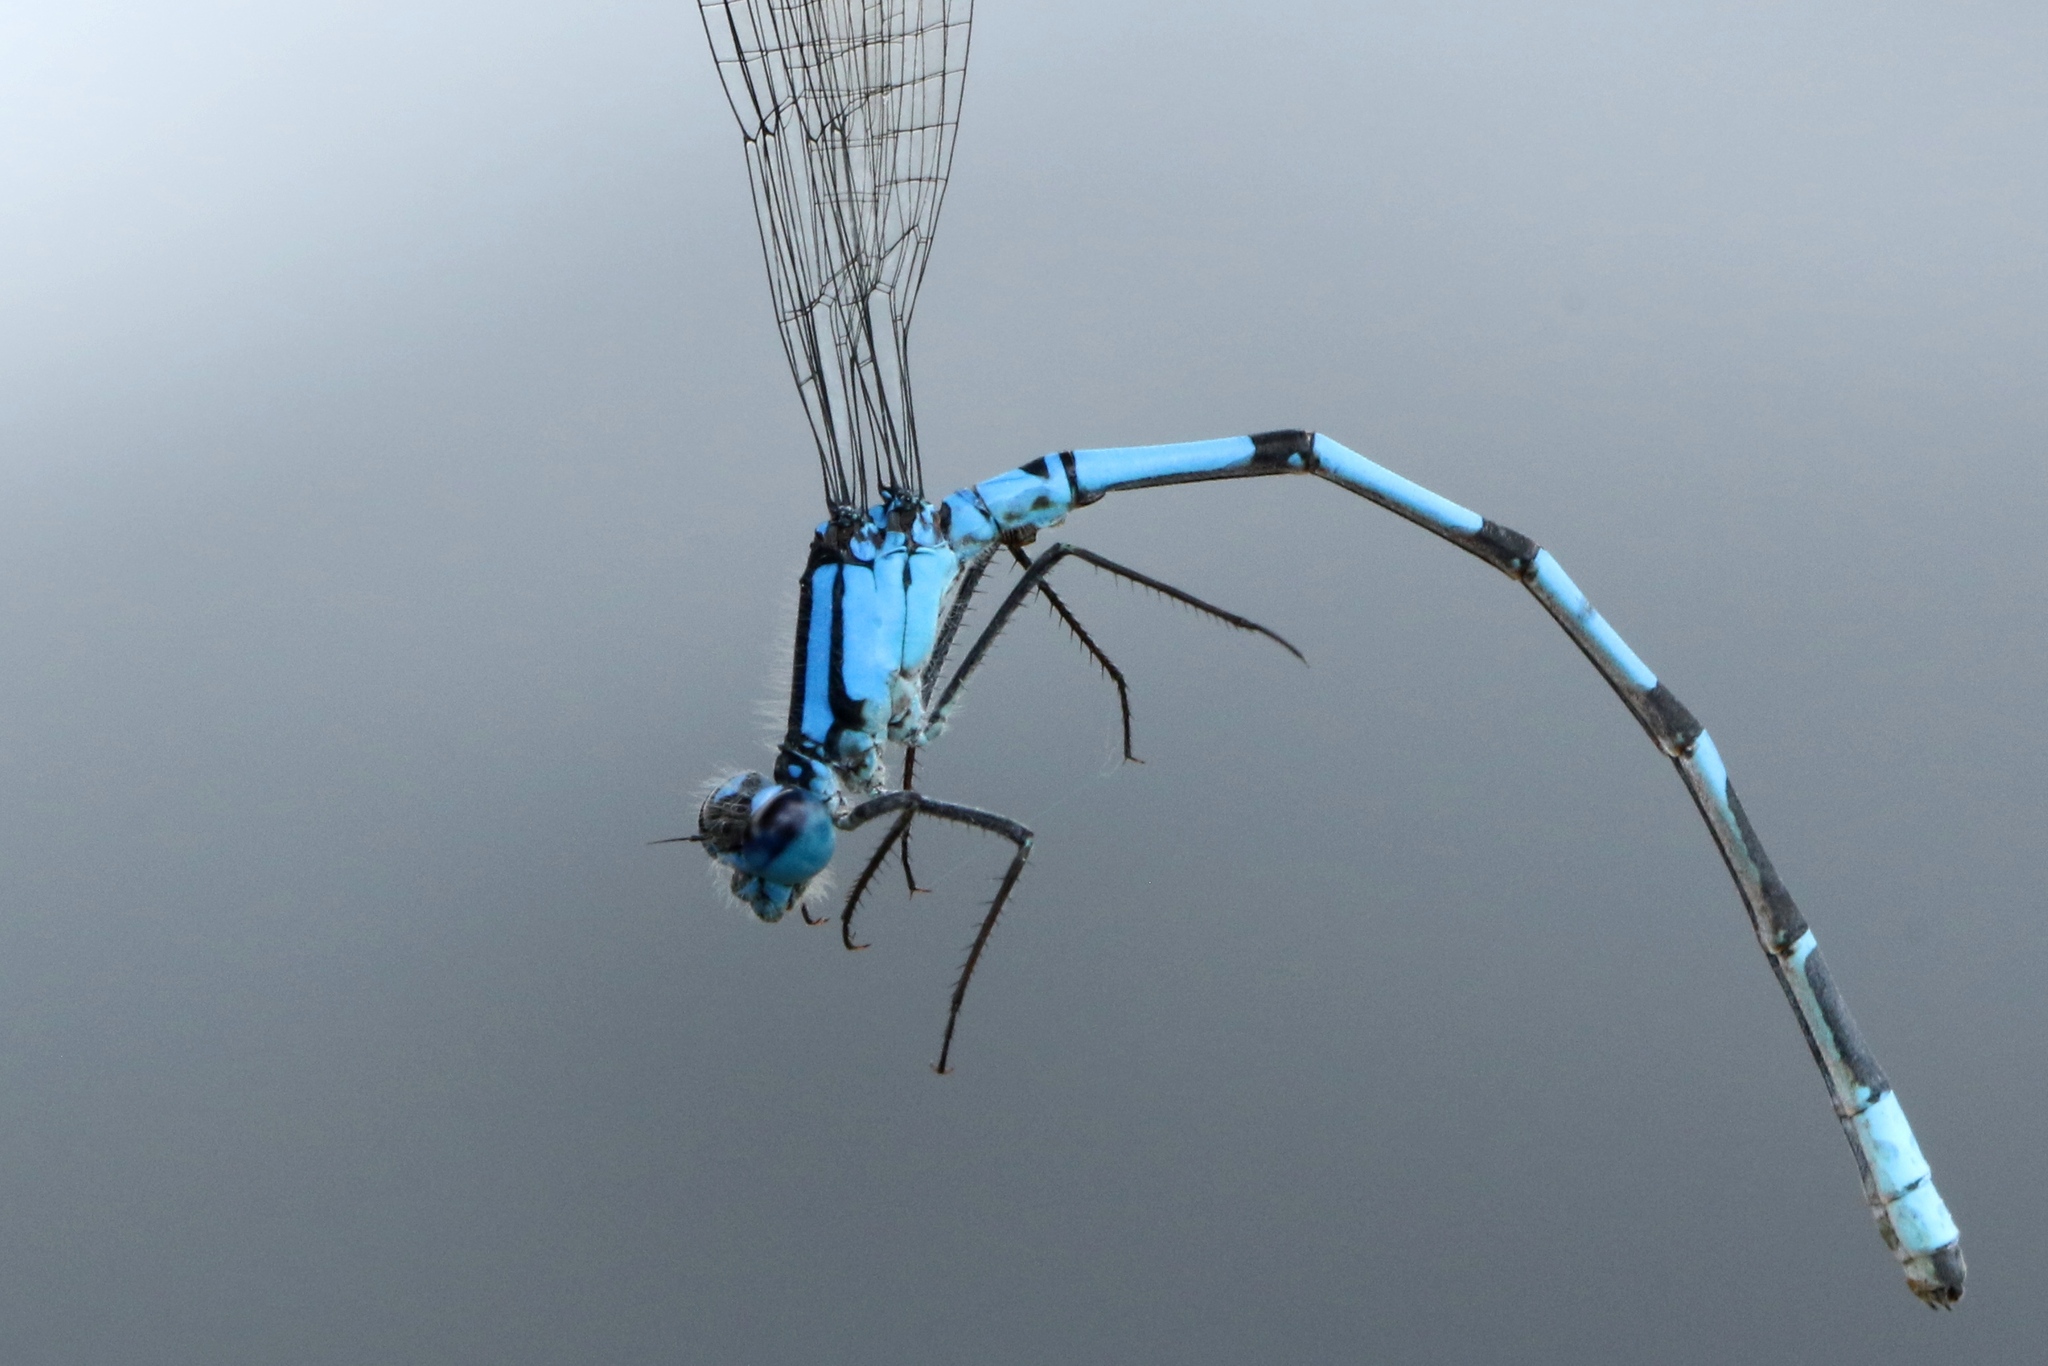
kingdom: Animalia
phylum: Arthropoda
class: Insecta
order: Odonata
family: Coenagrionidae
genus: Enallagma
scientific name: Enallagma boreale
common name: Boreal bluet
